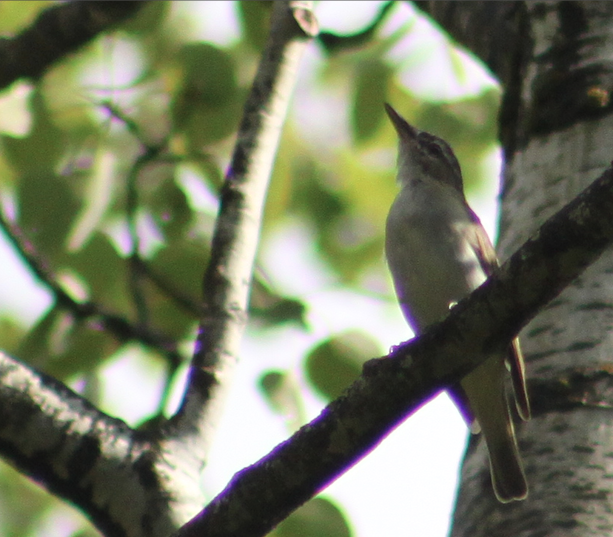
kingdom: Animalia
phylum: Chordata
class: Aves
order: Passeriformes
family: Vireonidae
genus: Vireo
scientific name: Vireo olivaceus
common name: Red-eyed vireo
